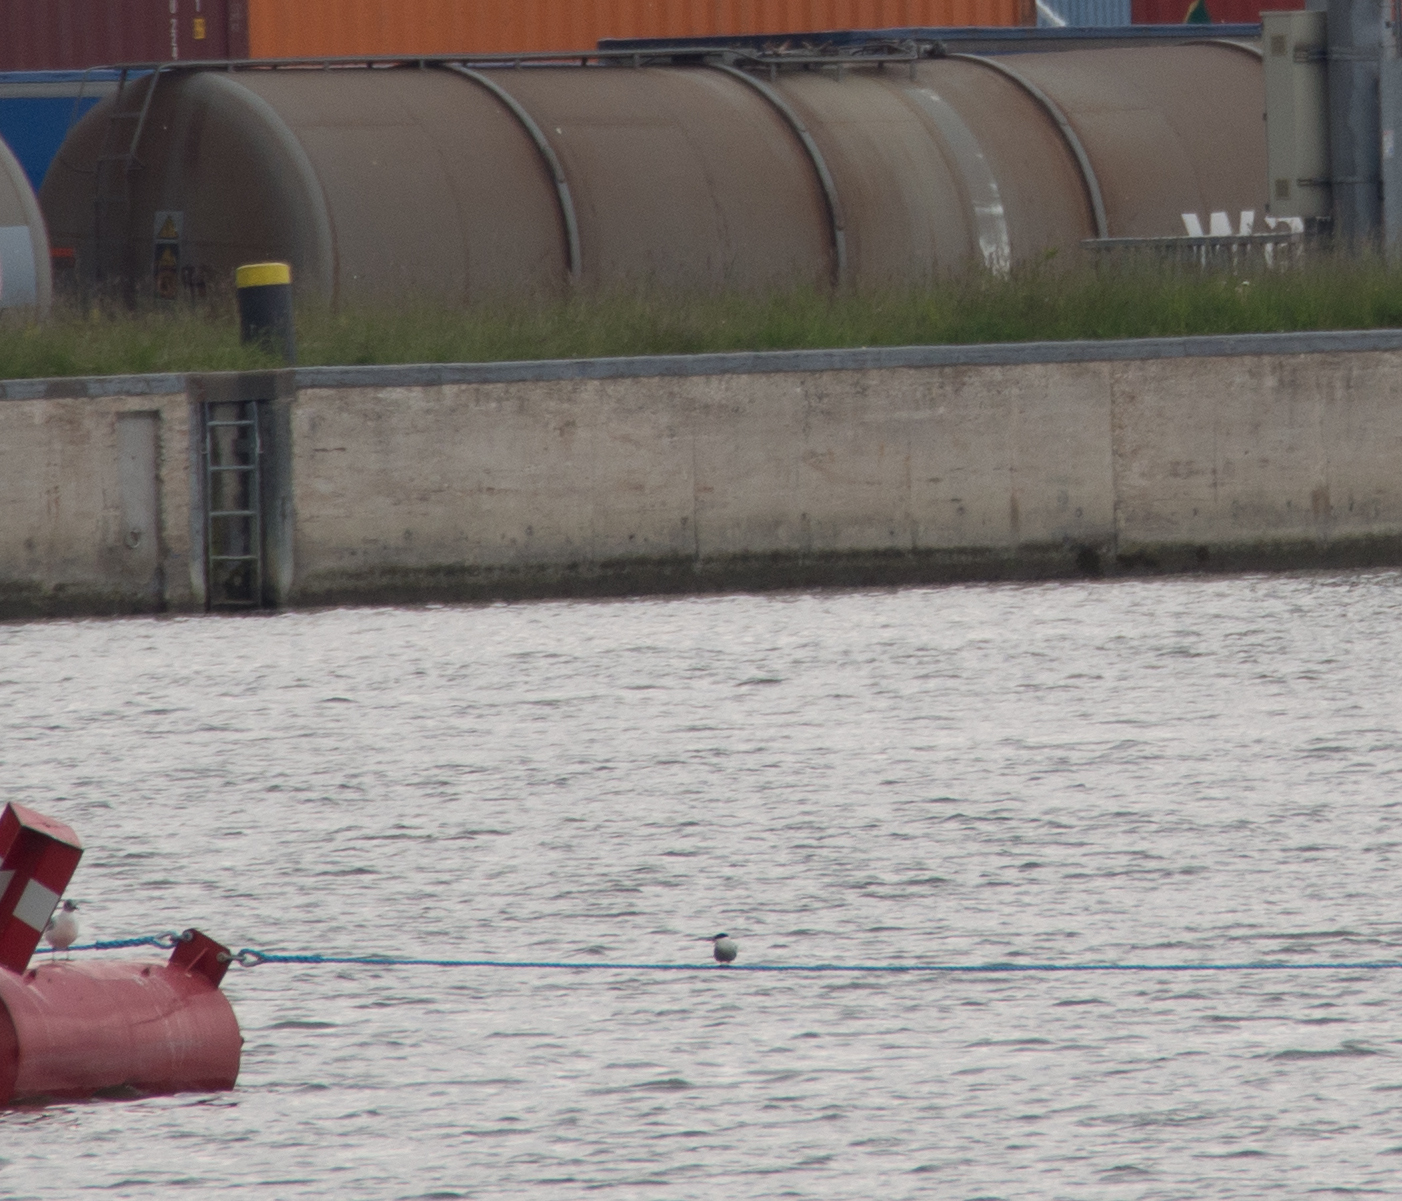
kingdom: Animalia
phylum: Chordata
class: Aves
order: Charadriiformes
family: Laridae
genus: Sterna
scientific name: Sterna hirundo
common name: Common tern
